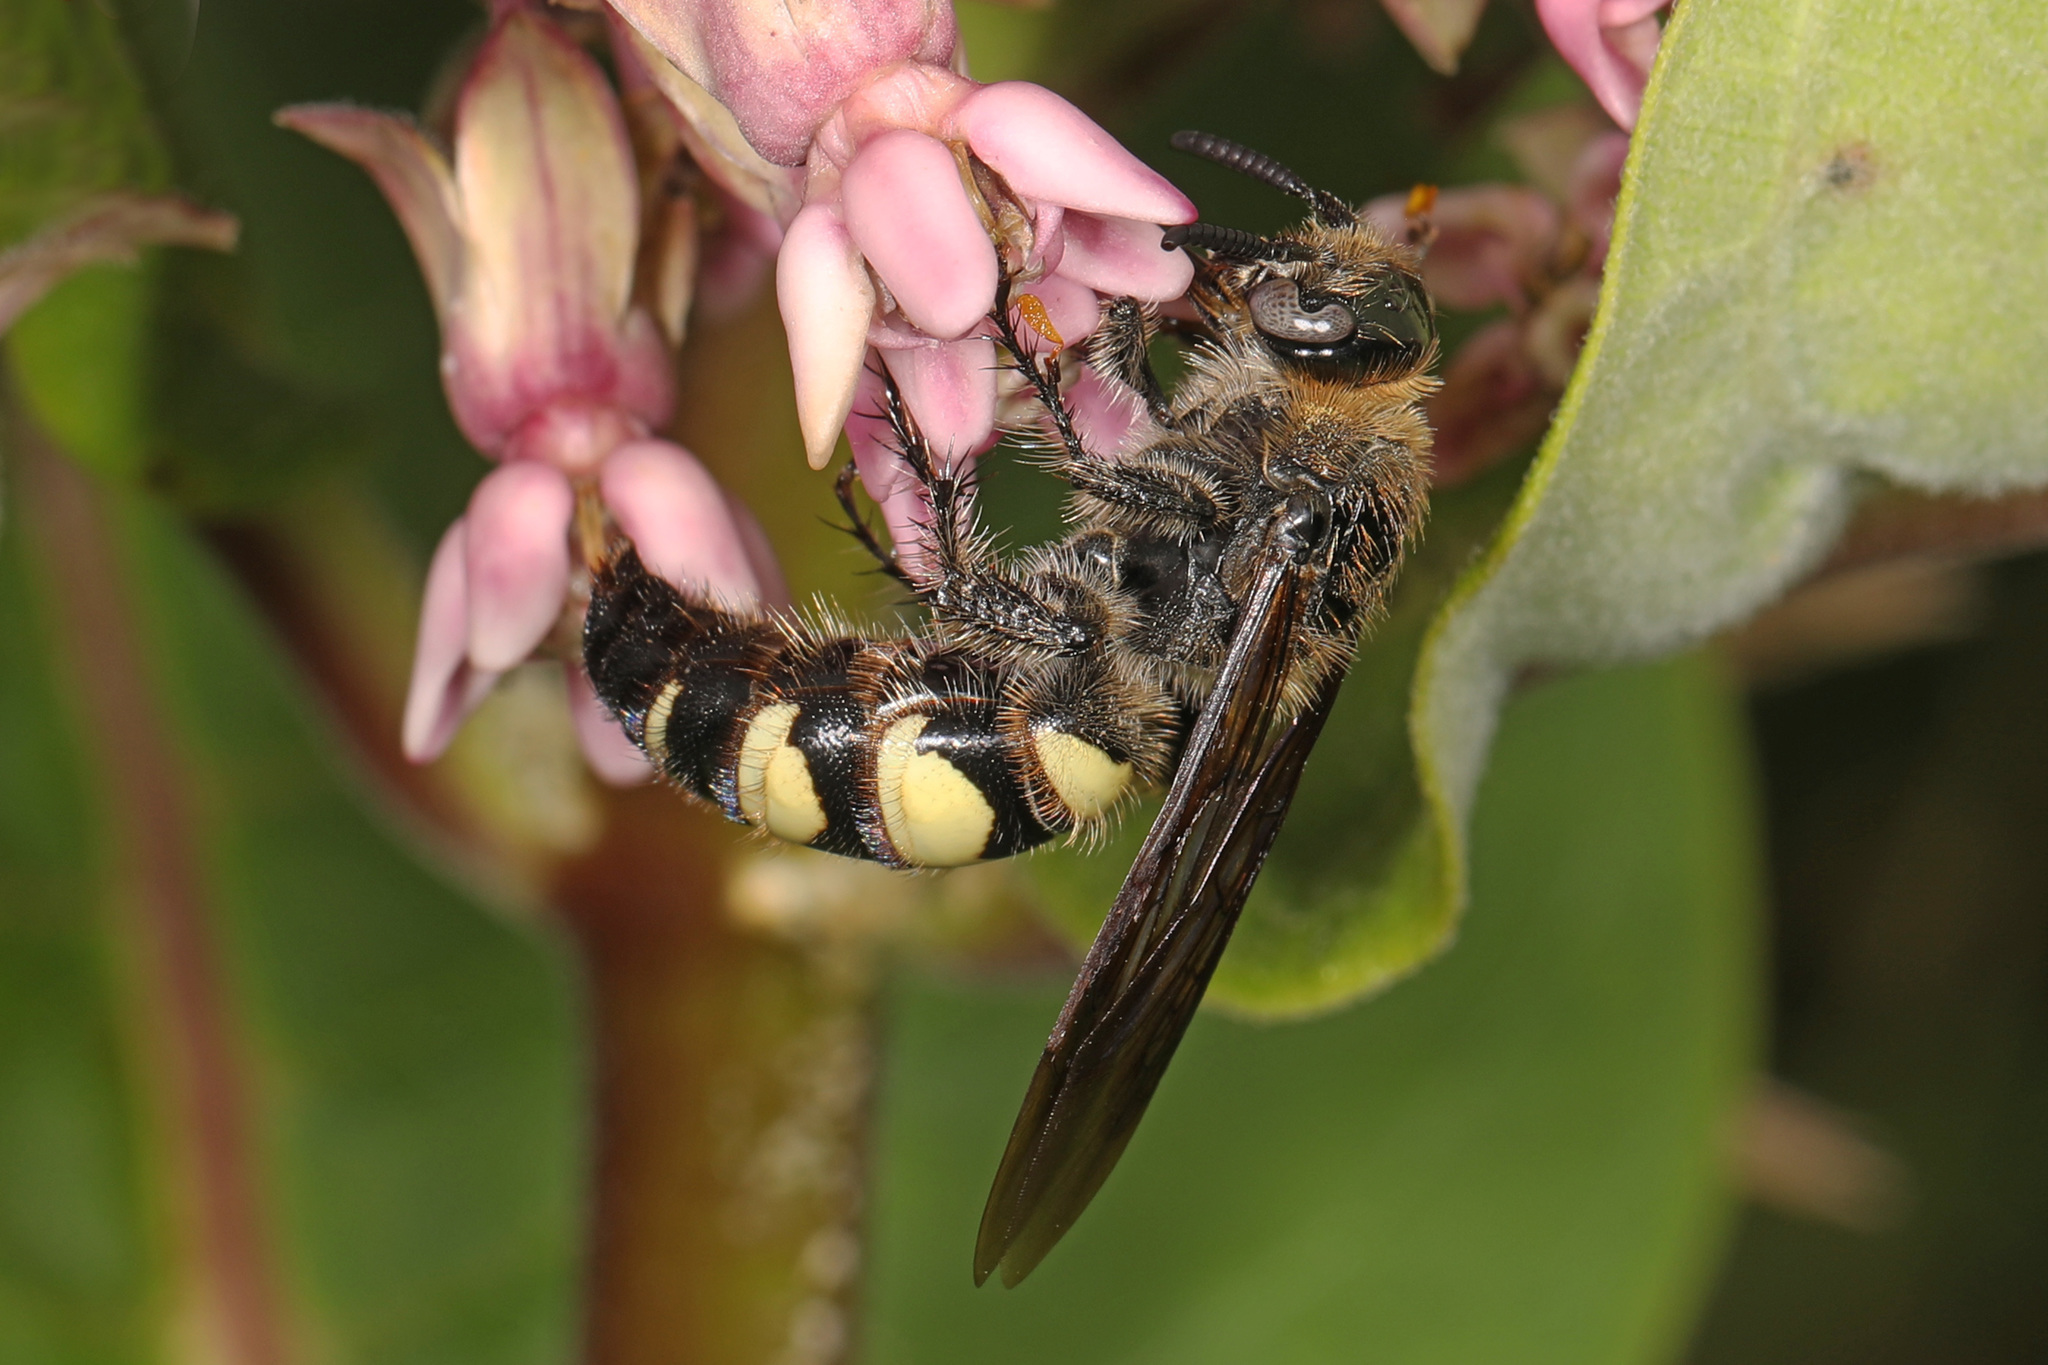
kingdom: Animalia
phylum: Arthropoda
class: Insecta
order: Hymenoptera
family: Scoliidae
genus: Dielis
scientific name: Dielis
